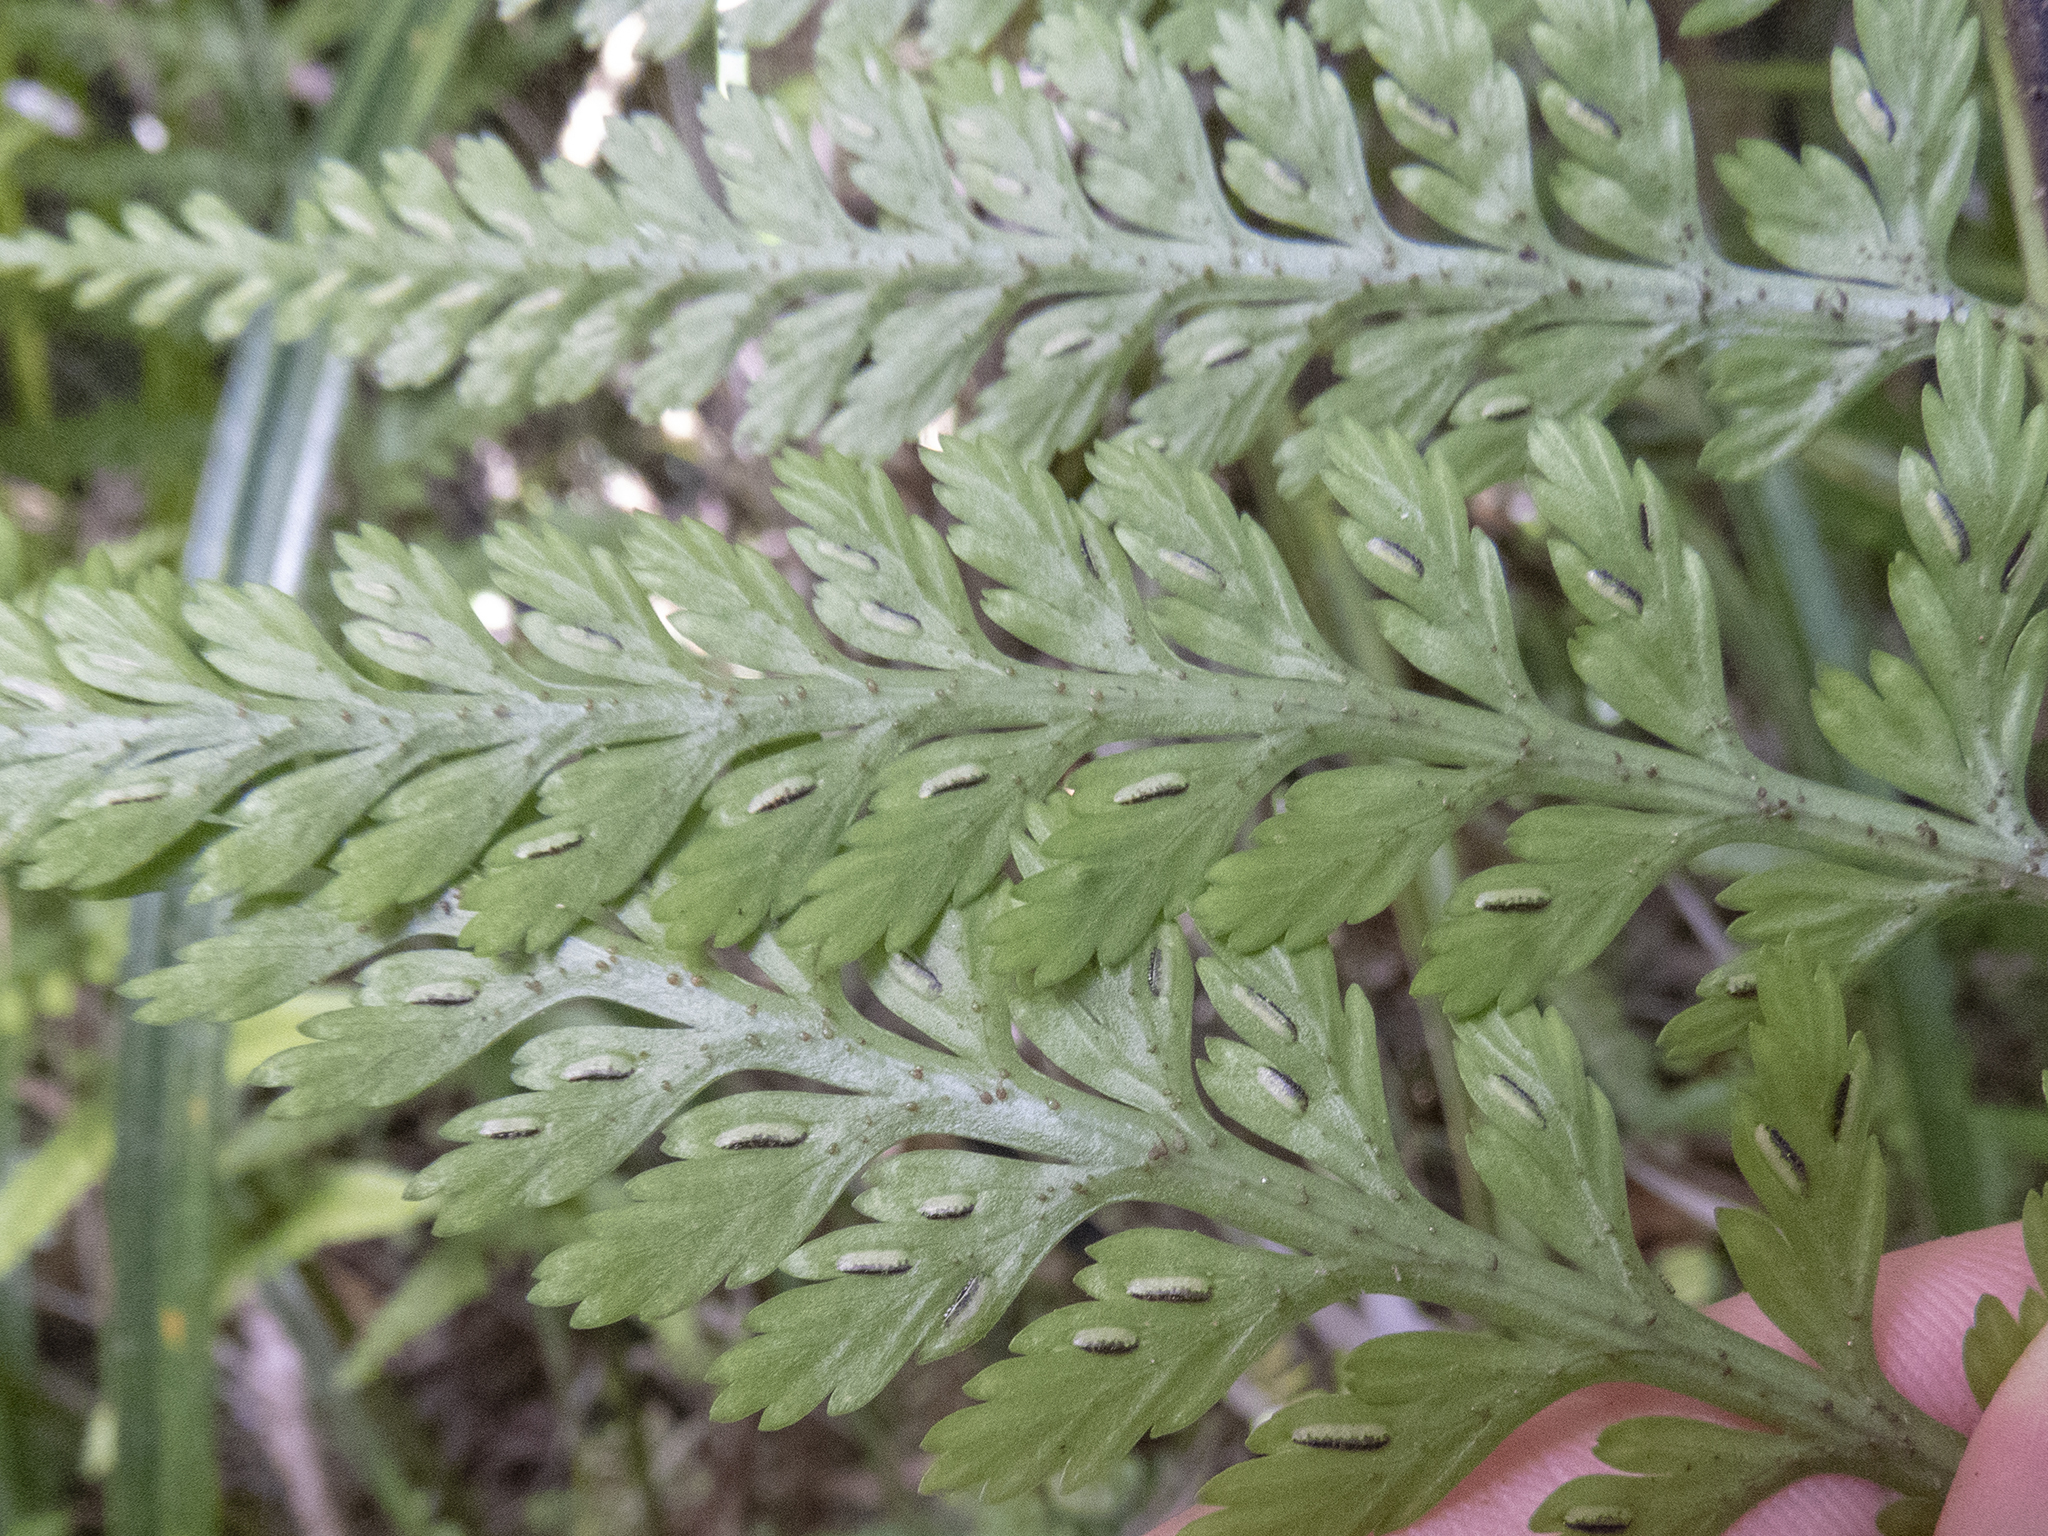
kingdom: Plantae
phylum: Tracheophyta
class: Polypodiopsida
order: Polypodiales
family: Aspleniaceae
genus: Asplenium
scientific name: Asplenium bulbiferum
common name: Mother fern
